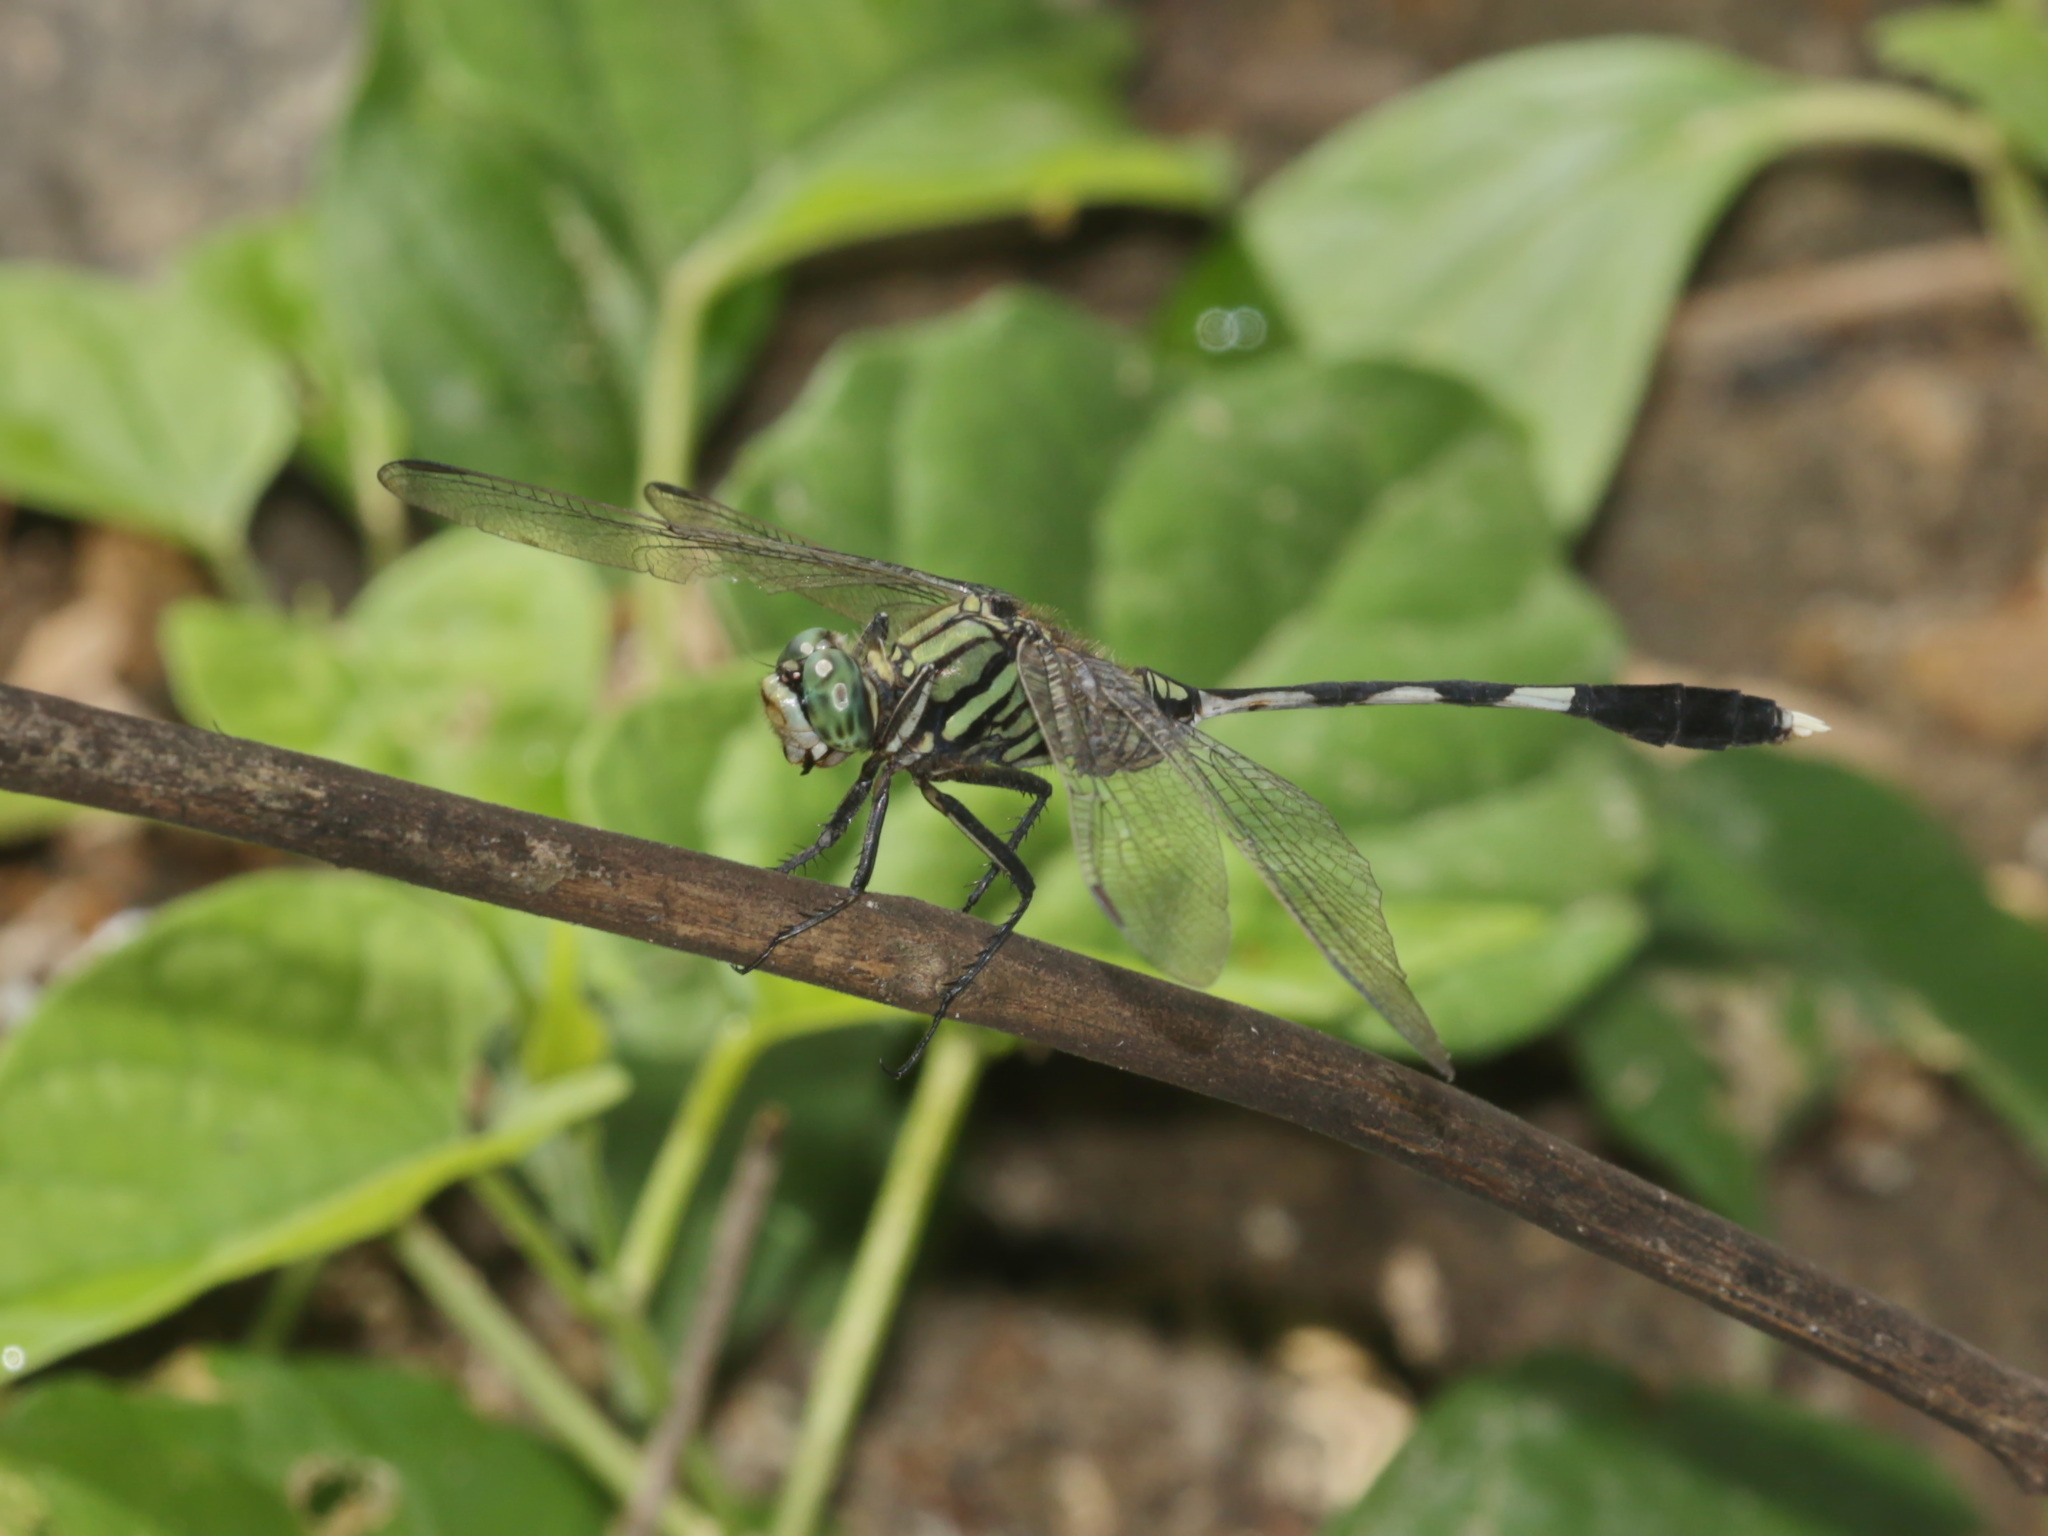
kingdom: Animalia
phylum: Arthropoda
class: Insecta
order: Odonata
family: Libellulidae
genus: Orthetrum
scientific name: Orthetrum sabina
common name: Slender skimmer
